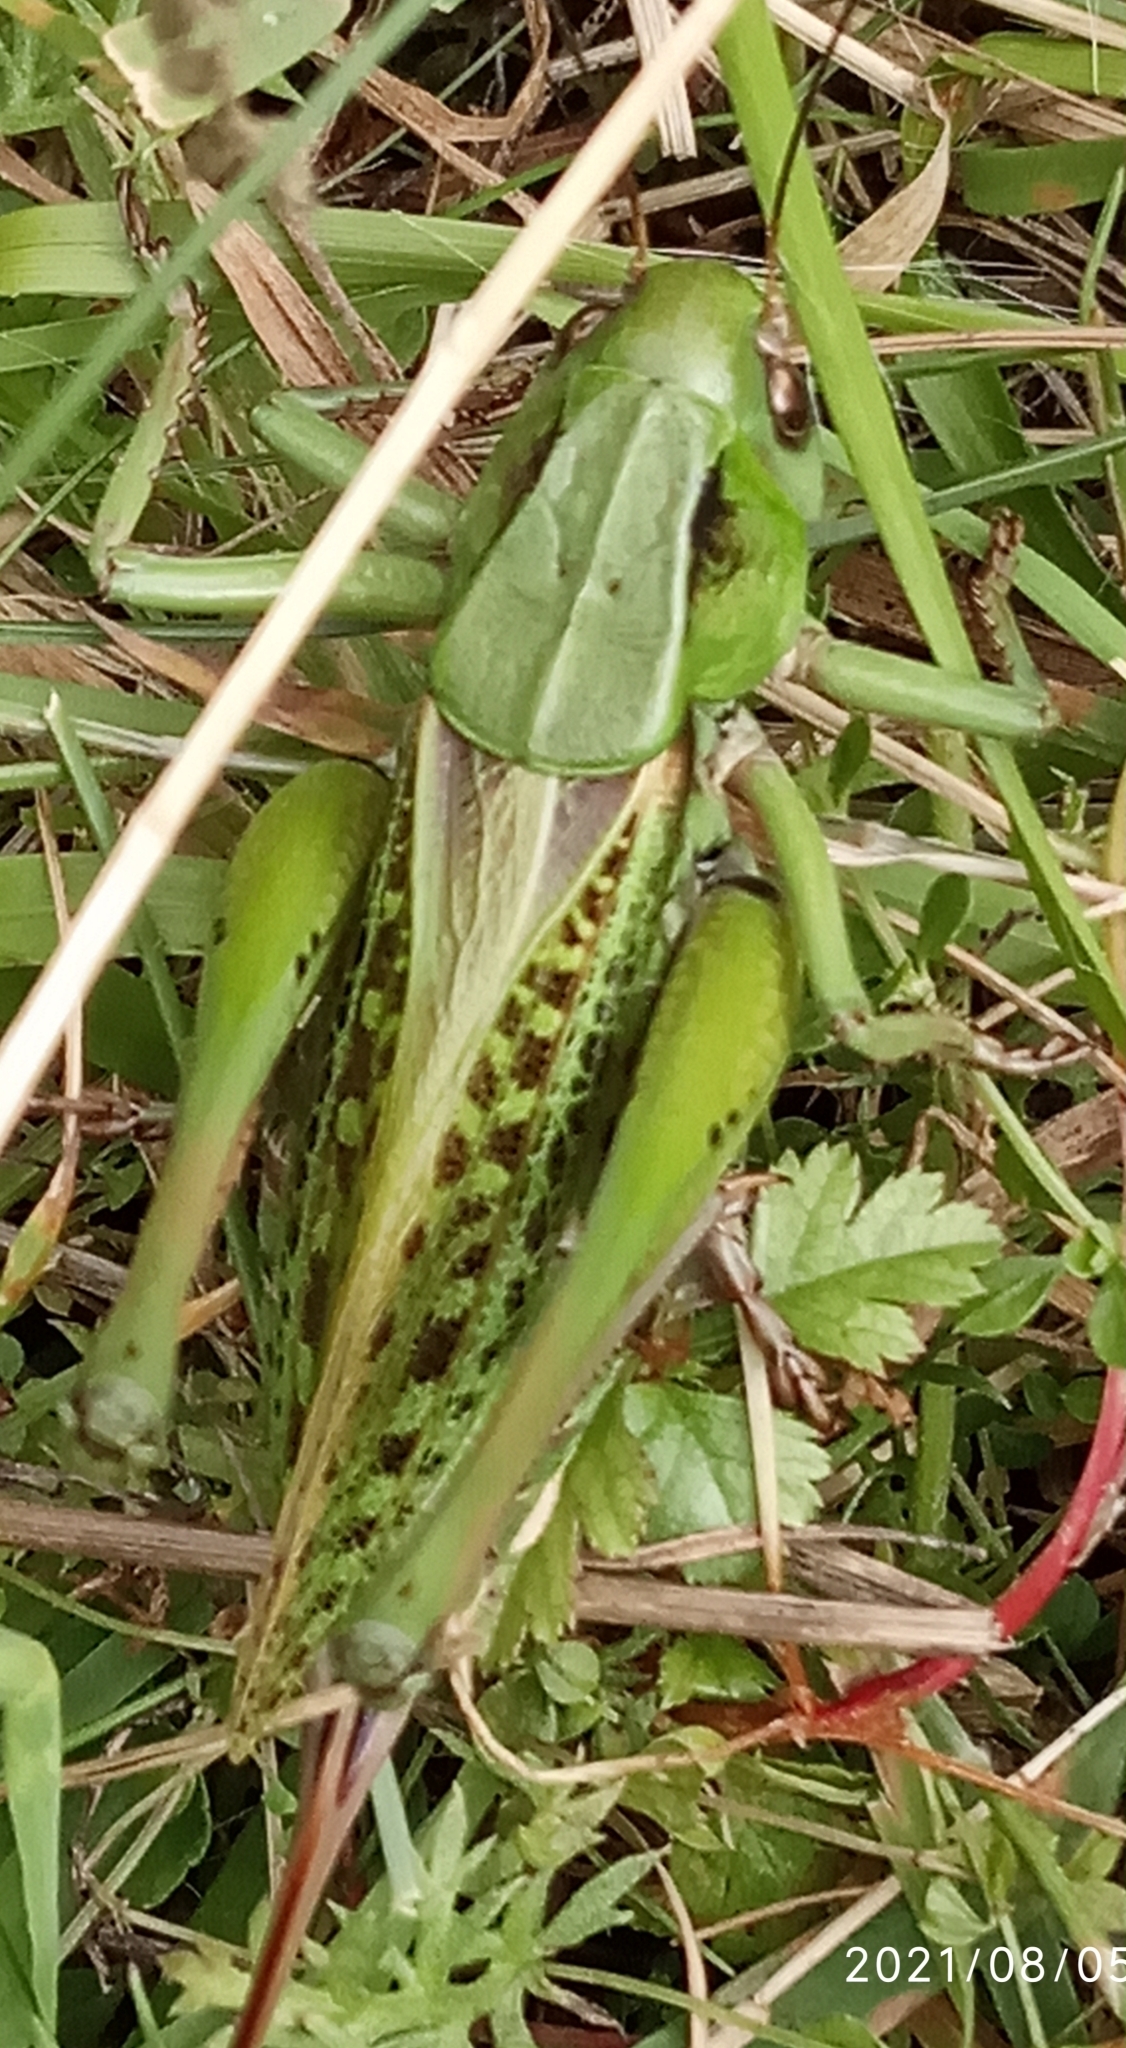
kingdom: Animalia
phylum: Arthropoda
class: Insecta
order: Orthoptera
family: Tettigoniidae
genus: Decticus
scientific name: Decticus verrucivorus
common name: Wart-biter
